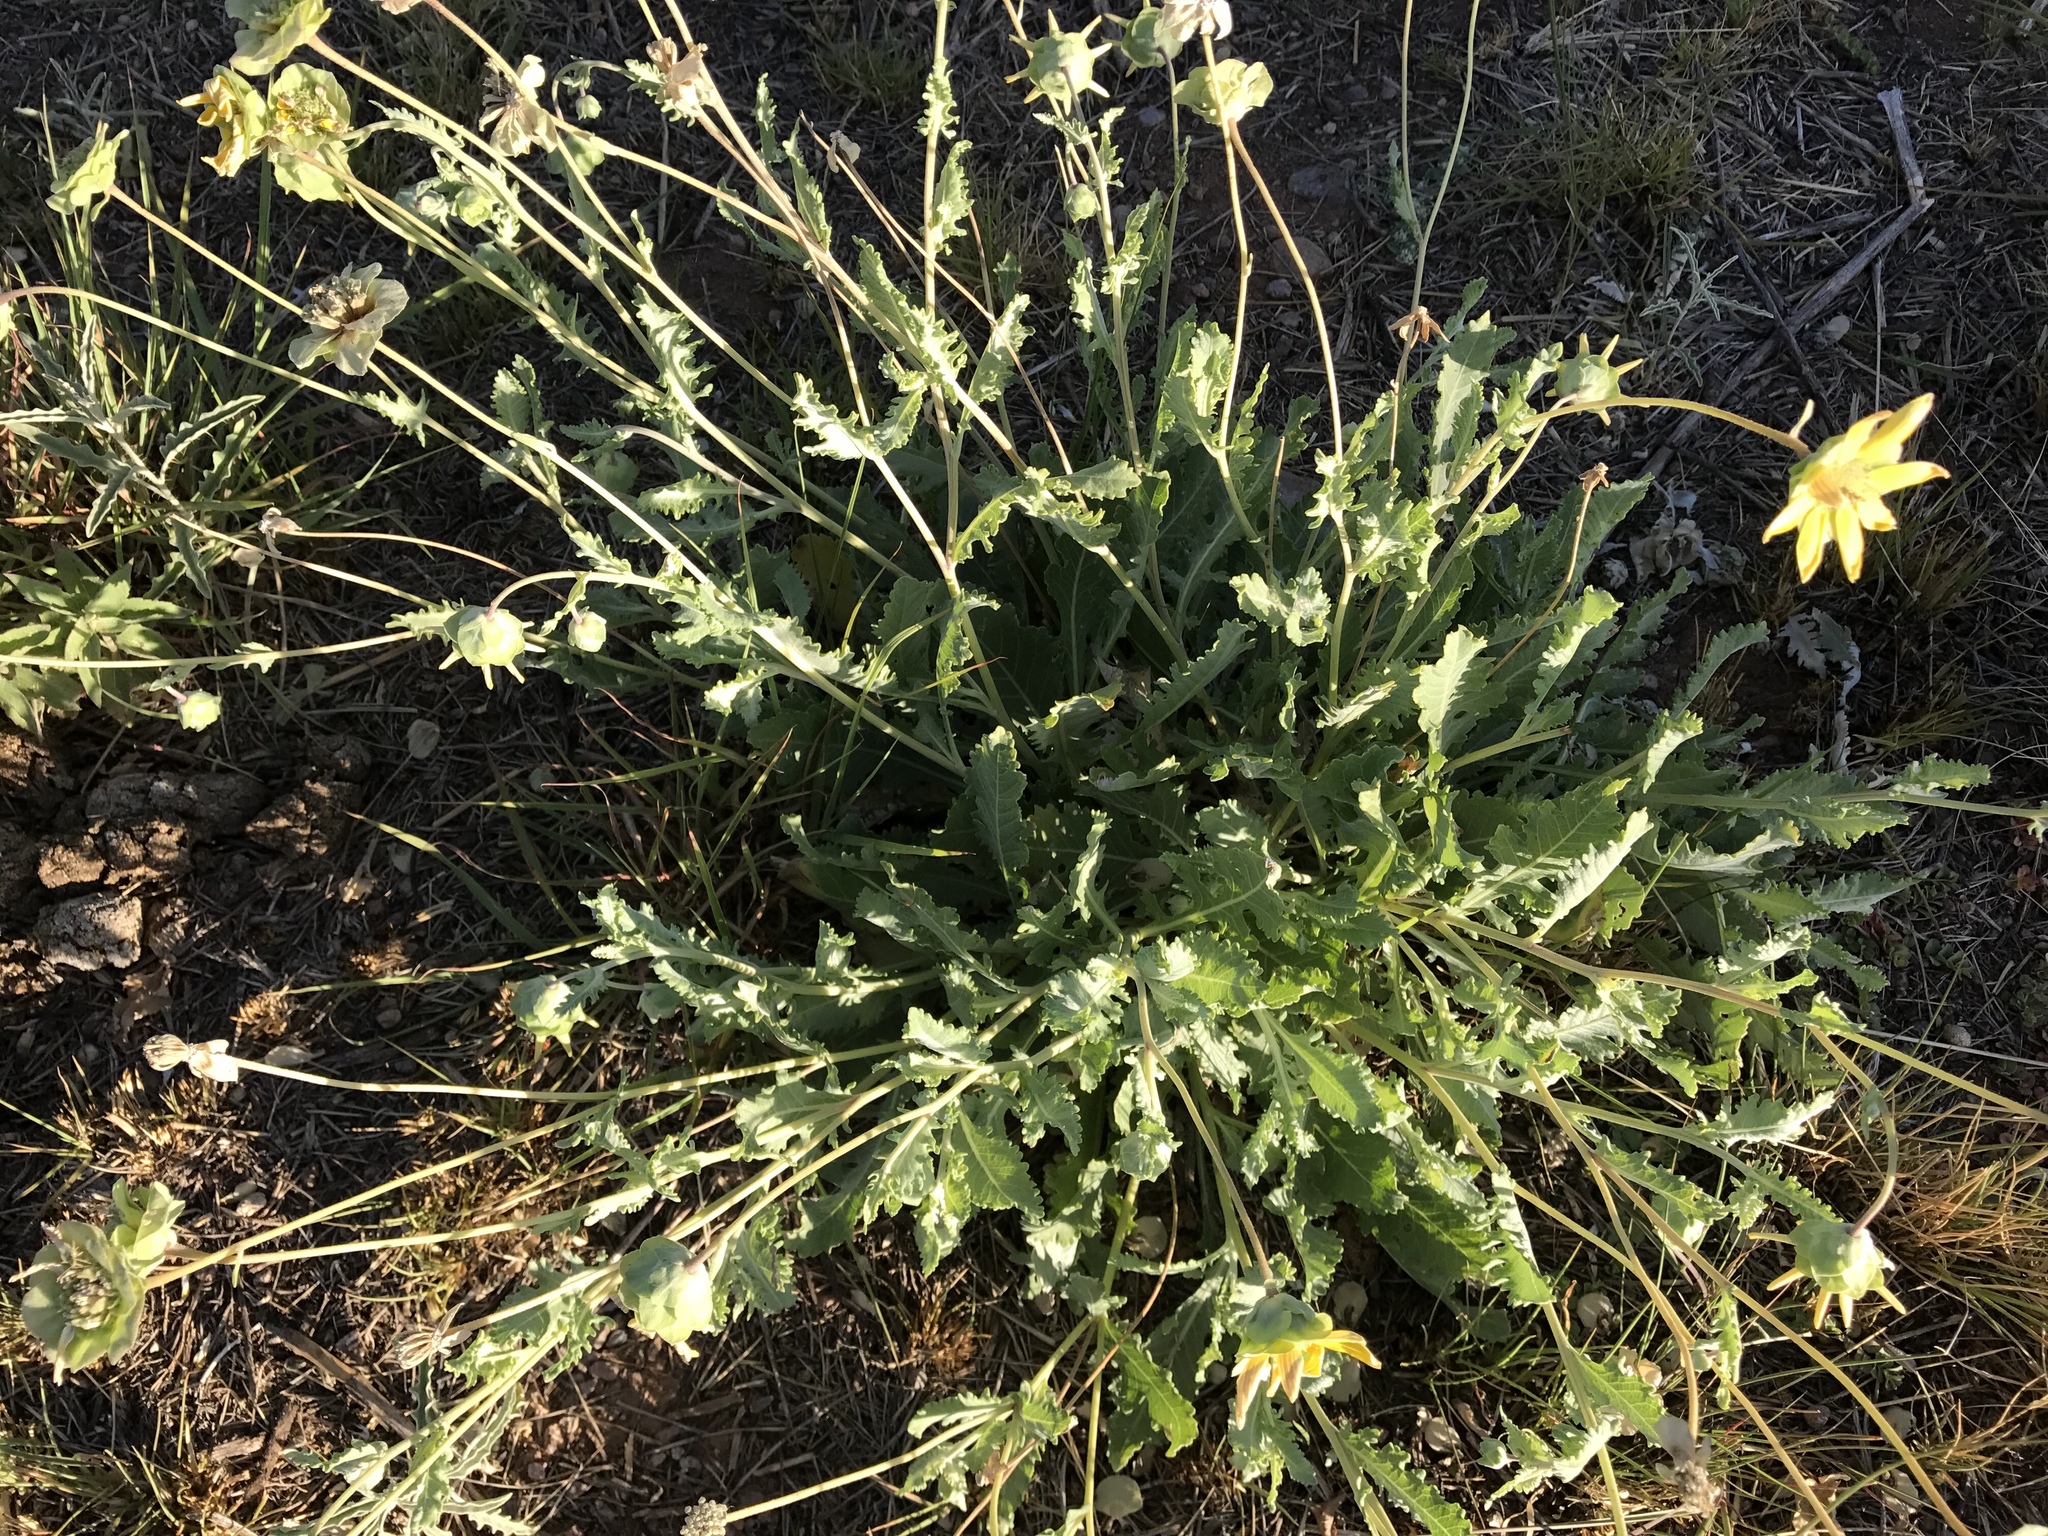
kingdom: Plantae
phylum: Tracheophyta
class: Magnoliopsida
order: Asterales
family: Asteraceae
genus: Berlandiera
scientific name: Berlandiera lyrata
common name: Chocolate-flower
